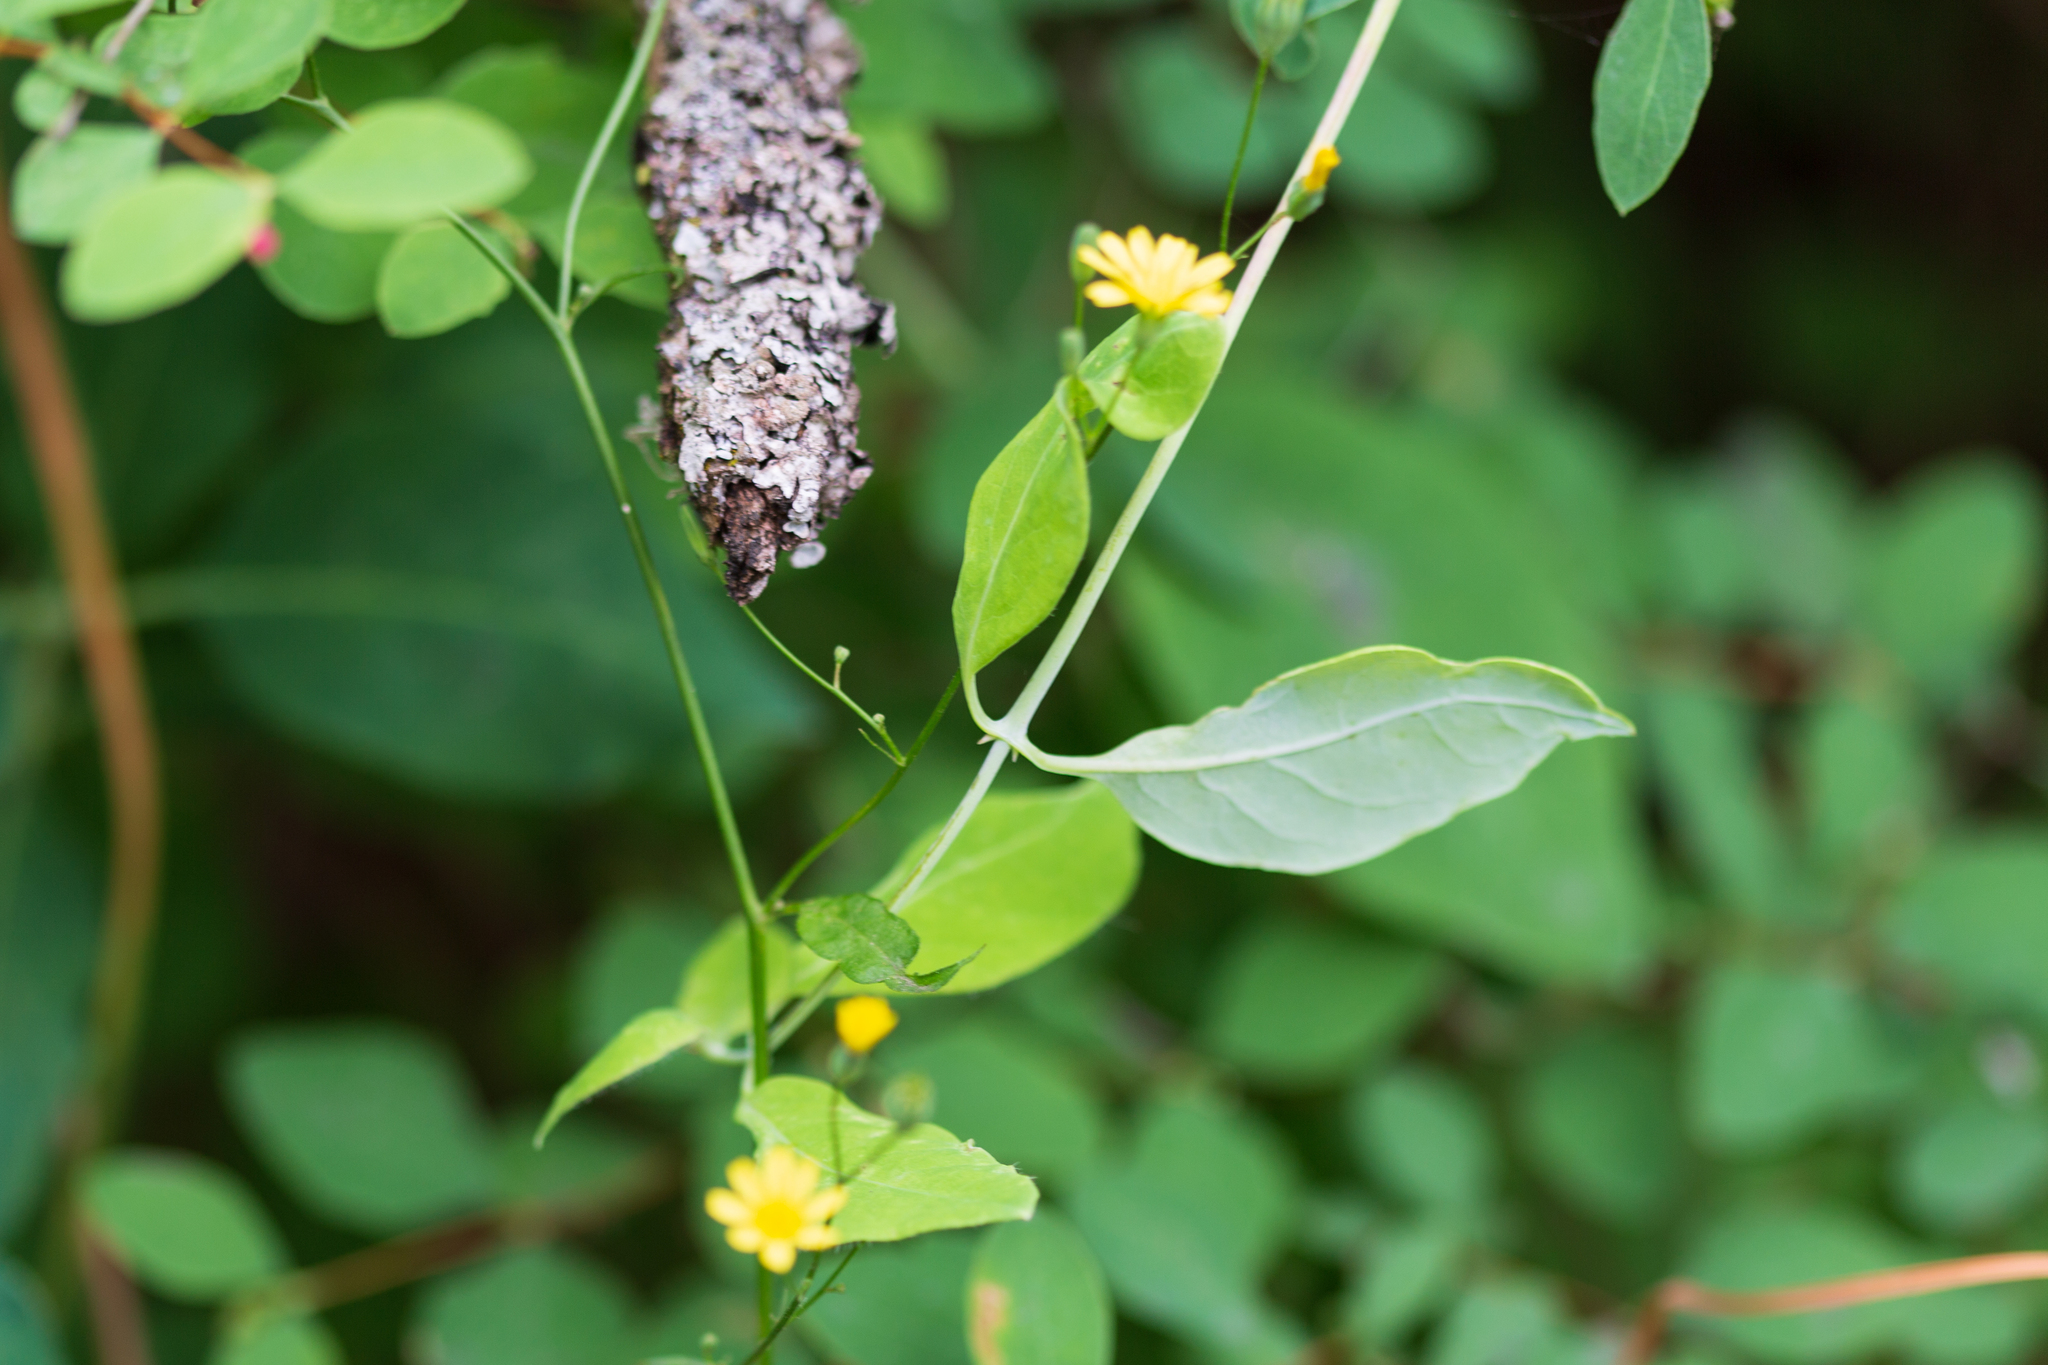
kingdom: Plantae
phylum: Tracheophyta
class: Magnoliopsida
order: Asterales
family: Asteraceae
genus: Lapsana
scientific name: Lapsana communis
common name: Nipplewort
